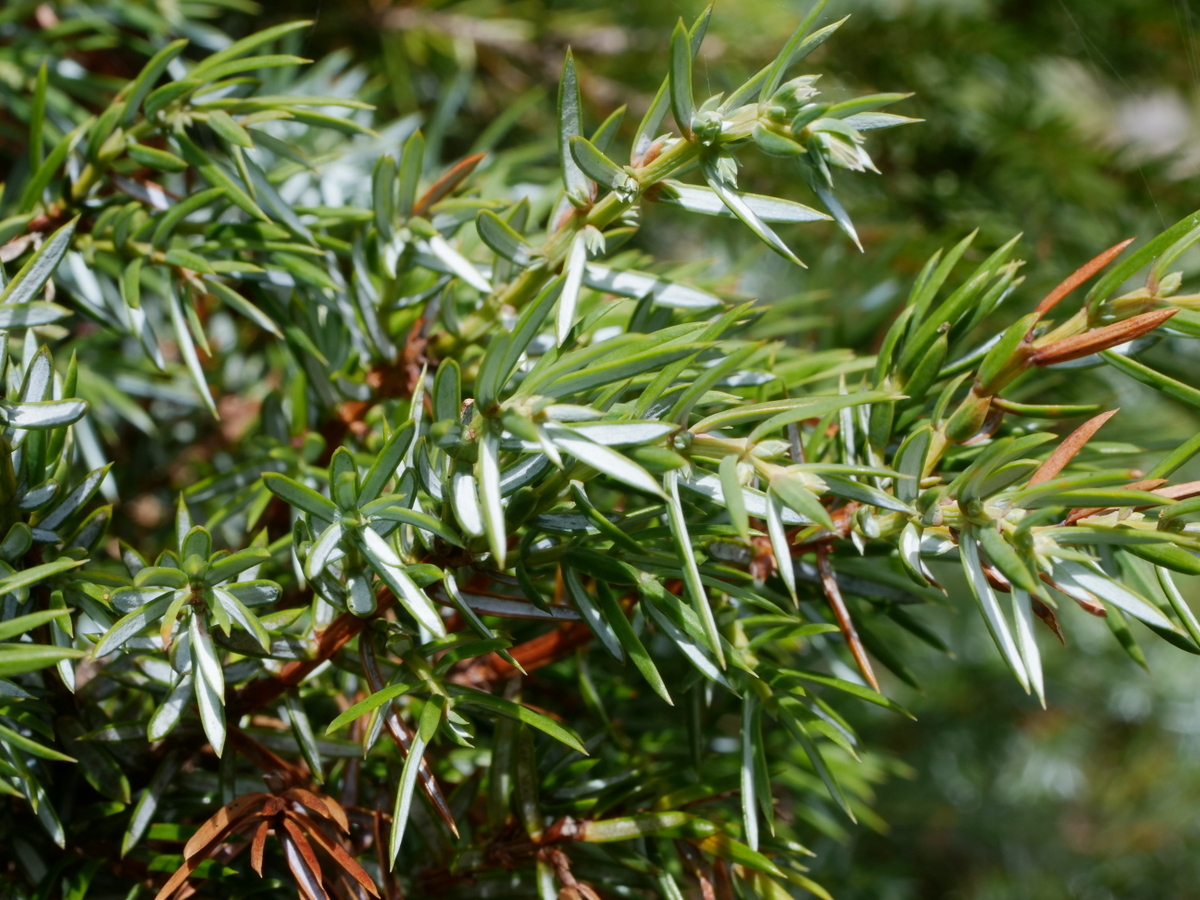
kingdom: Plantae
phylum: Tracheophyta
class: Pinopsida
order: Pinales
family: Cupressaceae
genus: Juniperus
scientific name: Juniperus communis
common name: Common juniper
